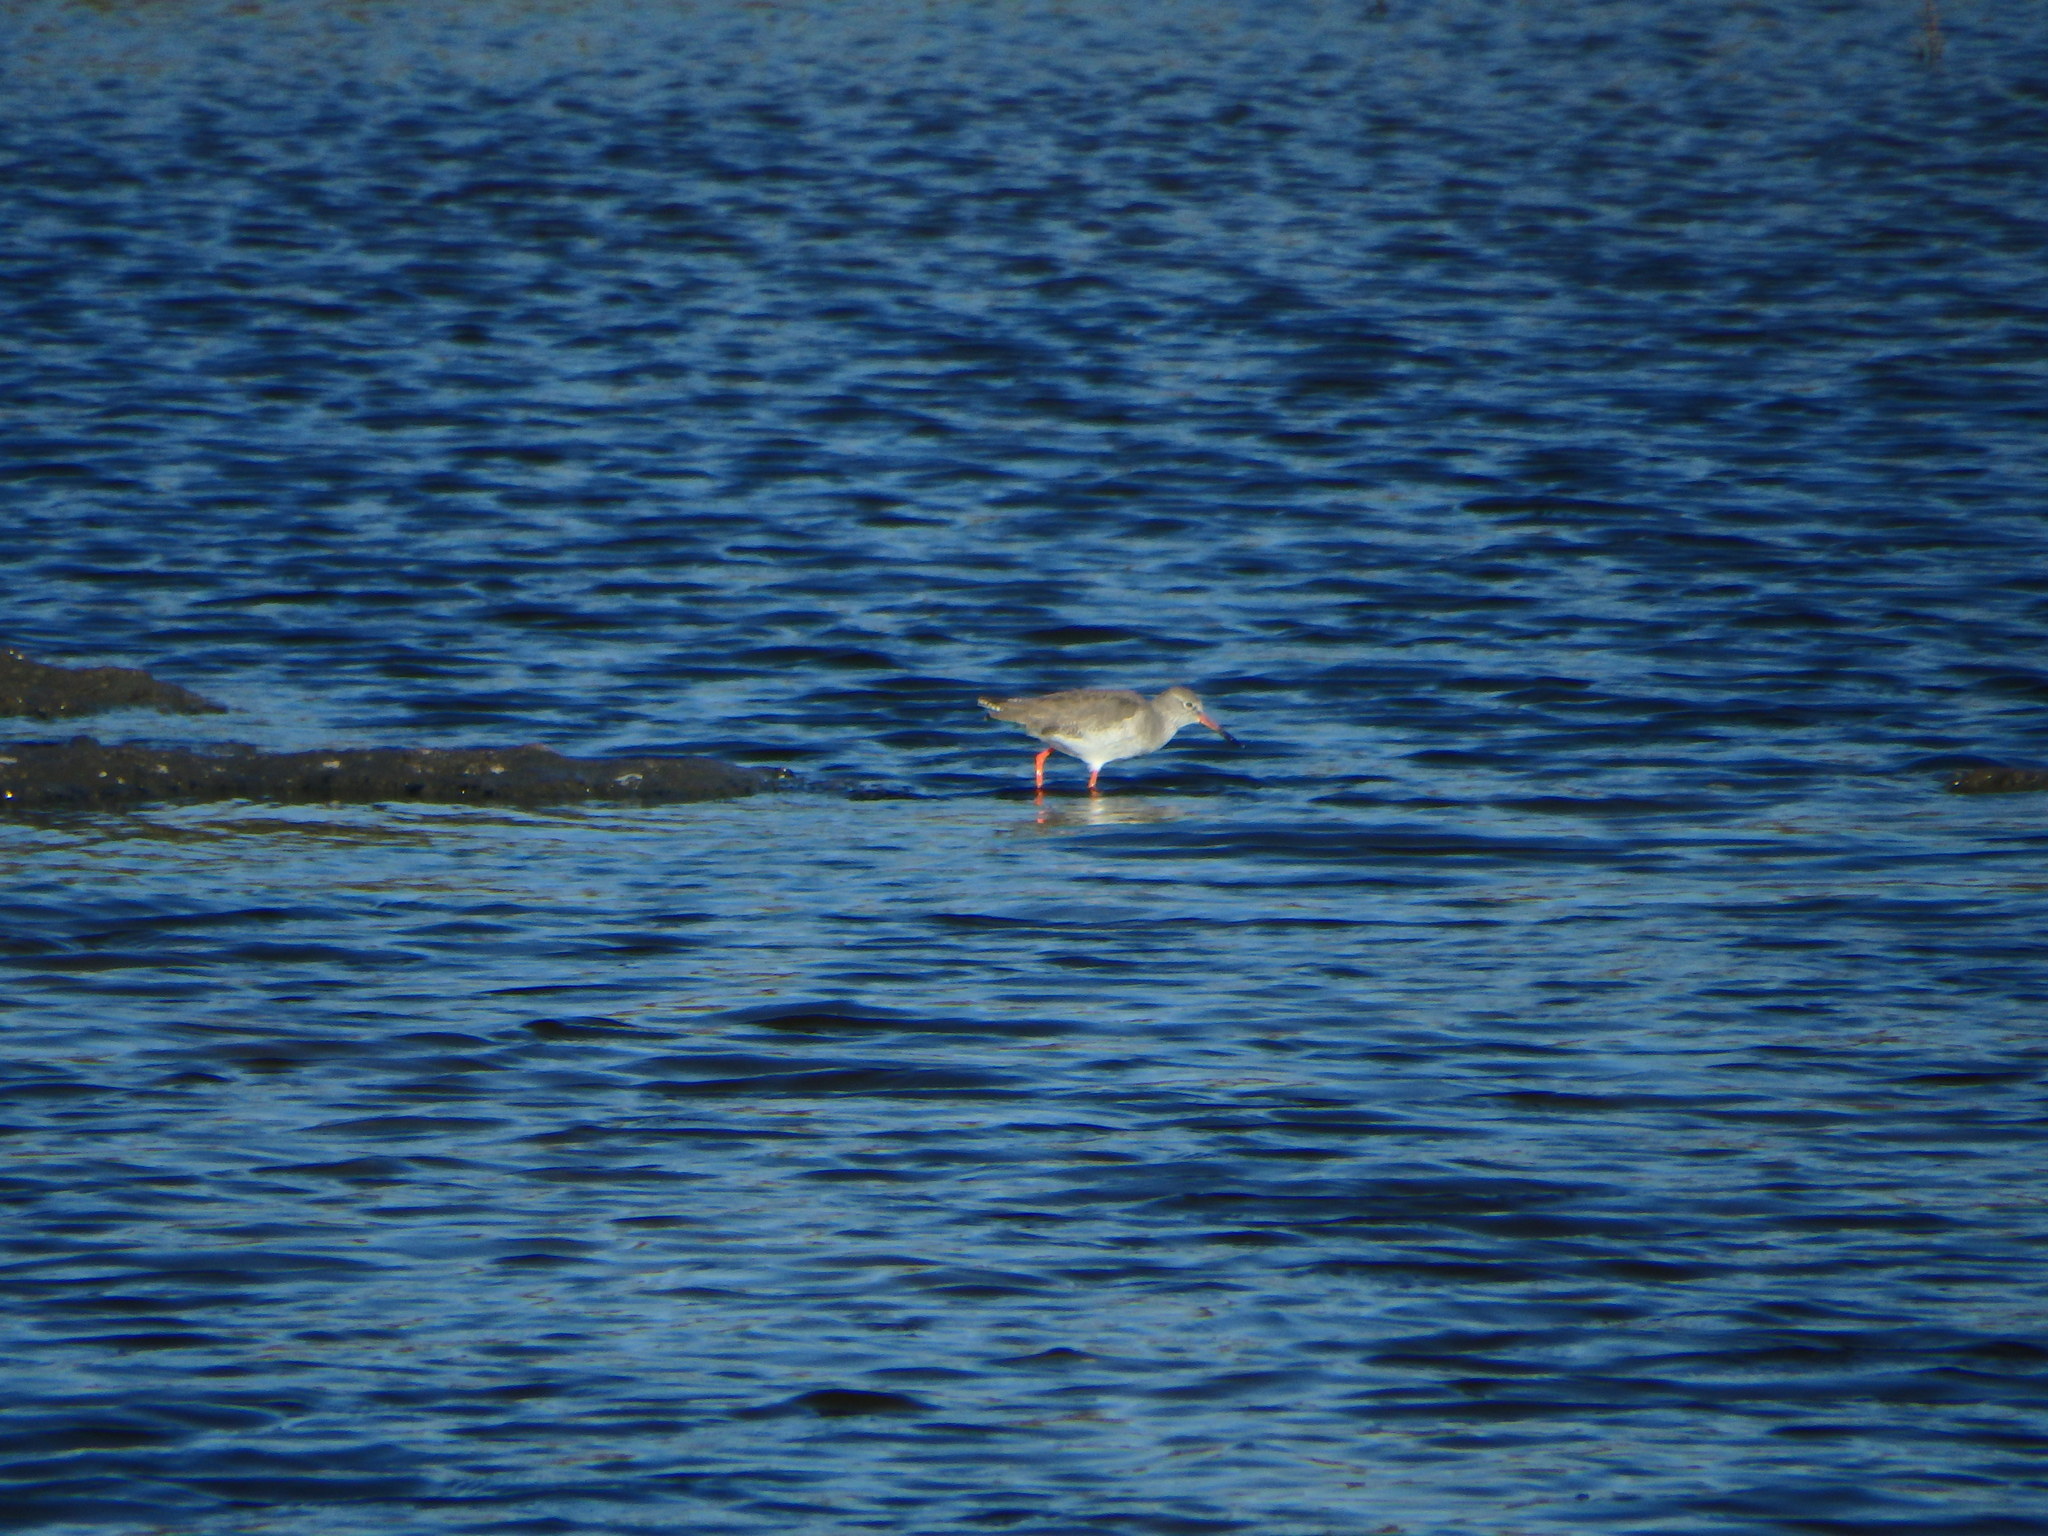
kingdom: Animalia
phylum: Chordata
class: Aves
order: Charadriiformes
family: Scolopacidae
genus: Tringa
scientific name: Tringa totanus
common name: Common redshank
